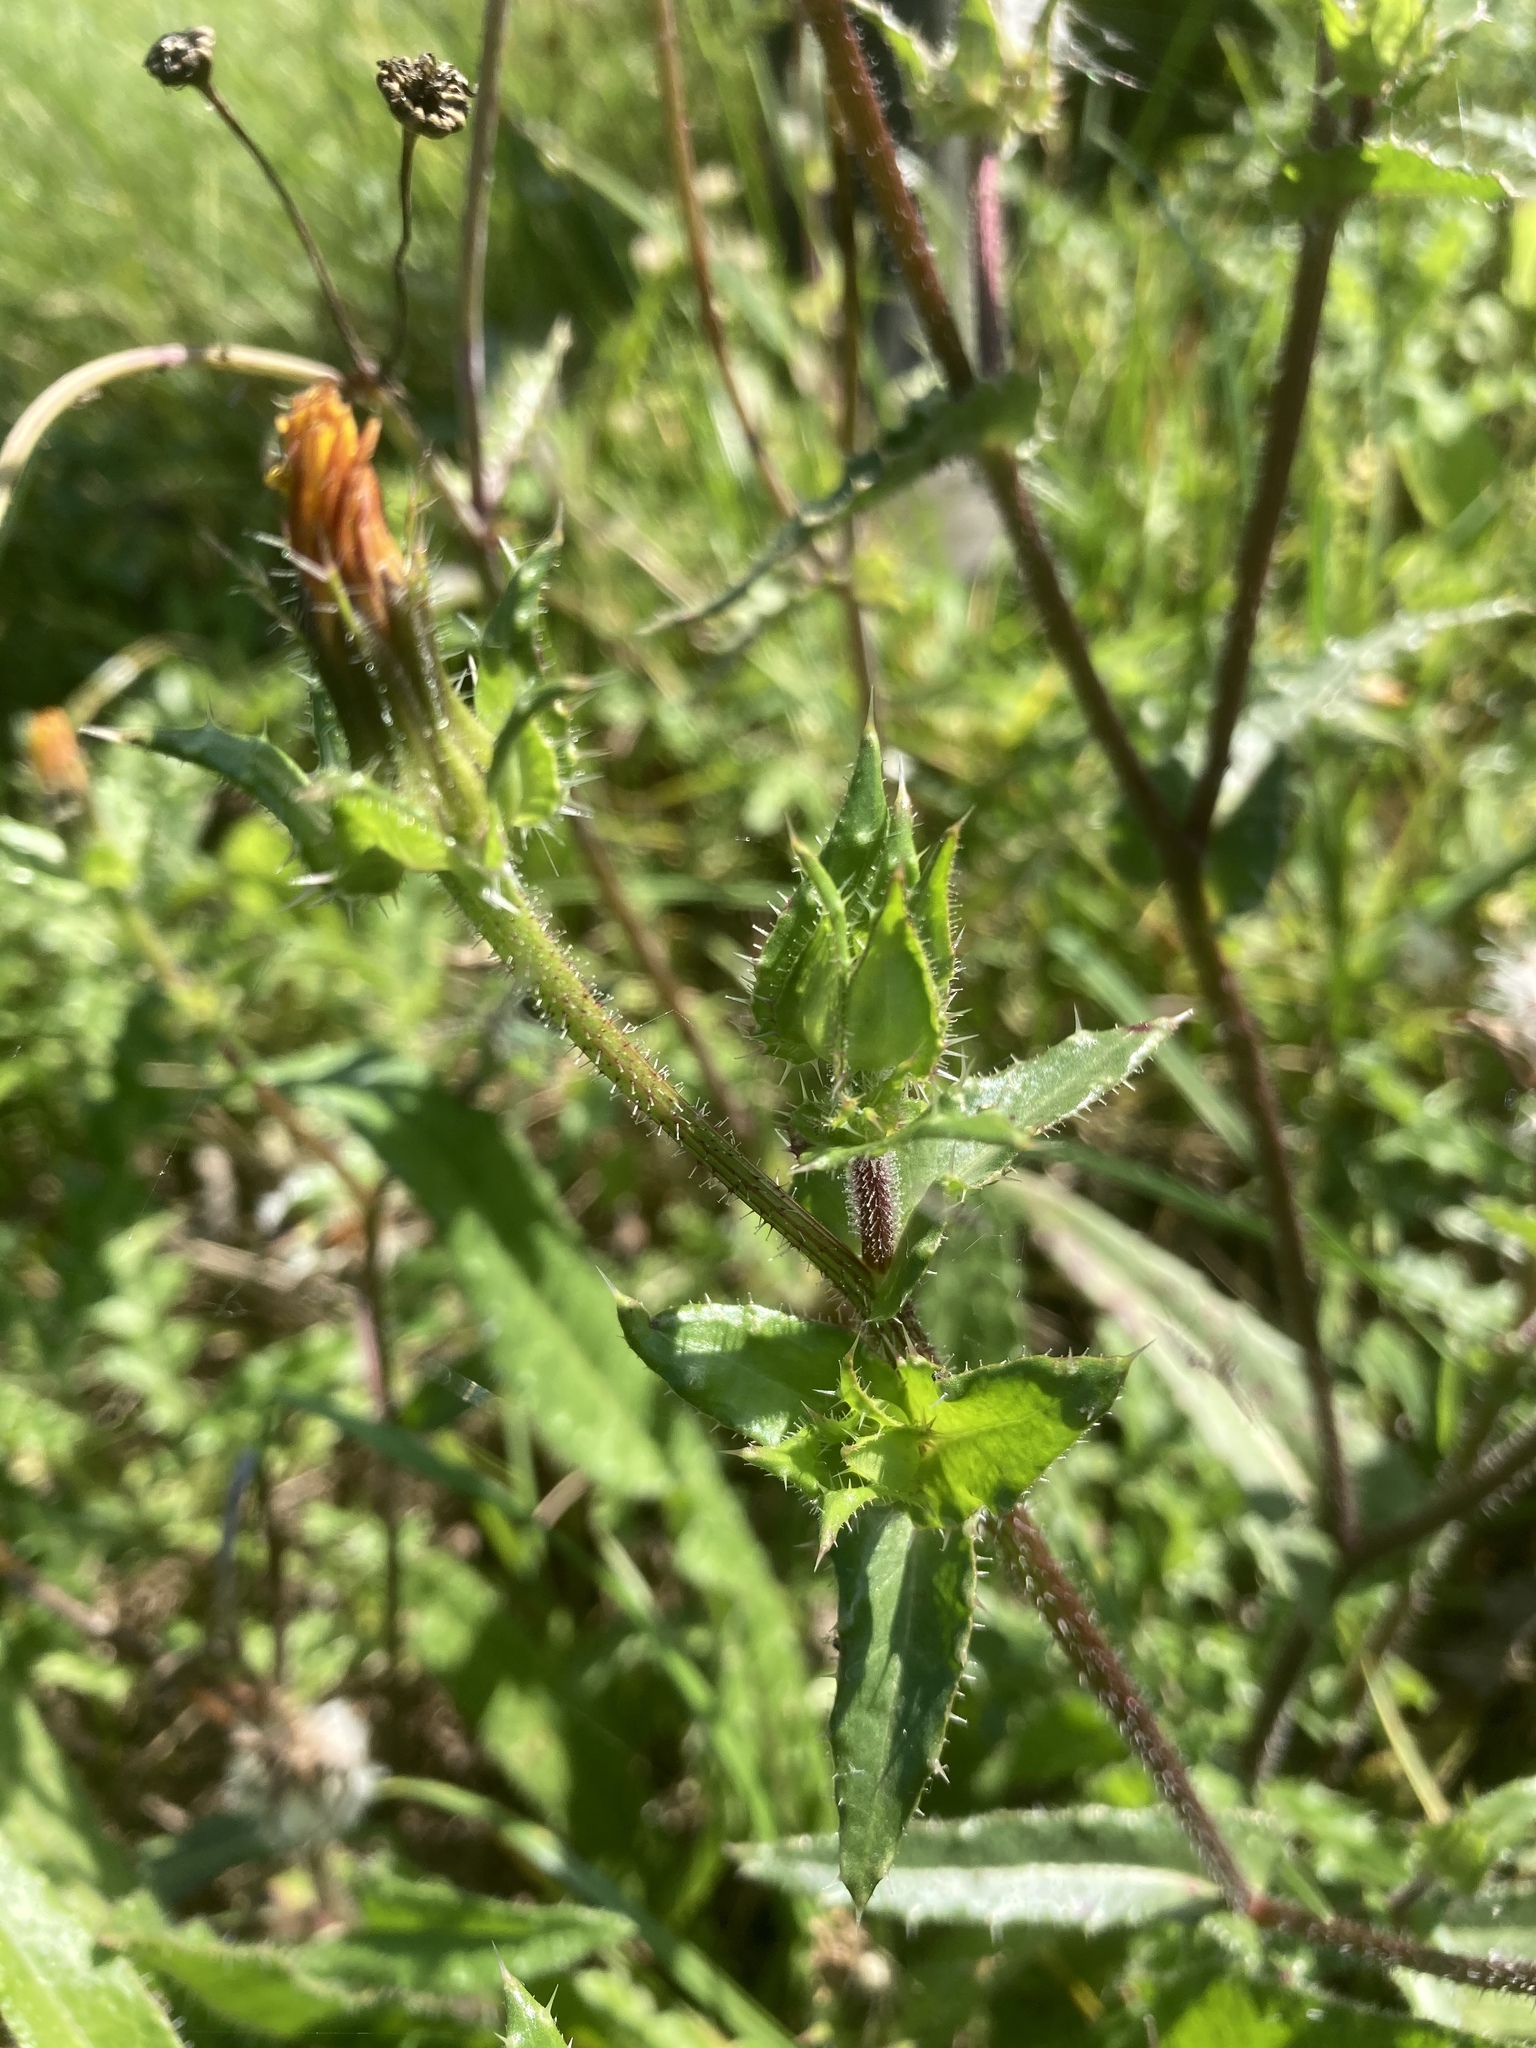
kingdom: Plantae
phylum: Tracheophyta
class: Magnoliopsida
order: Asterales
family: Asteraceae
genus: Helminthotheca
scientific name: Helminthotheca echioides
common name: Ox-tongue
